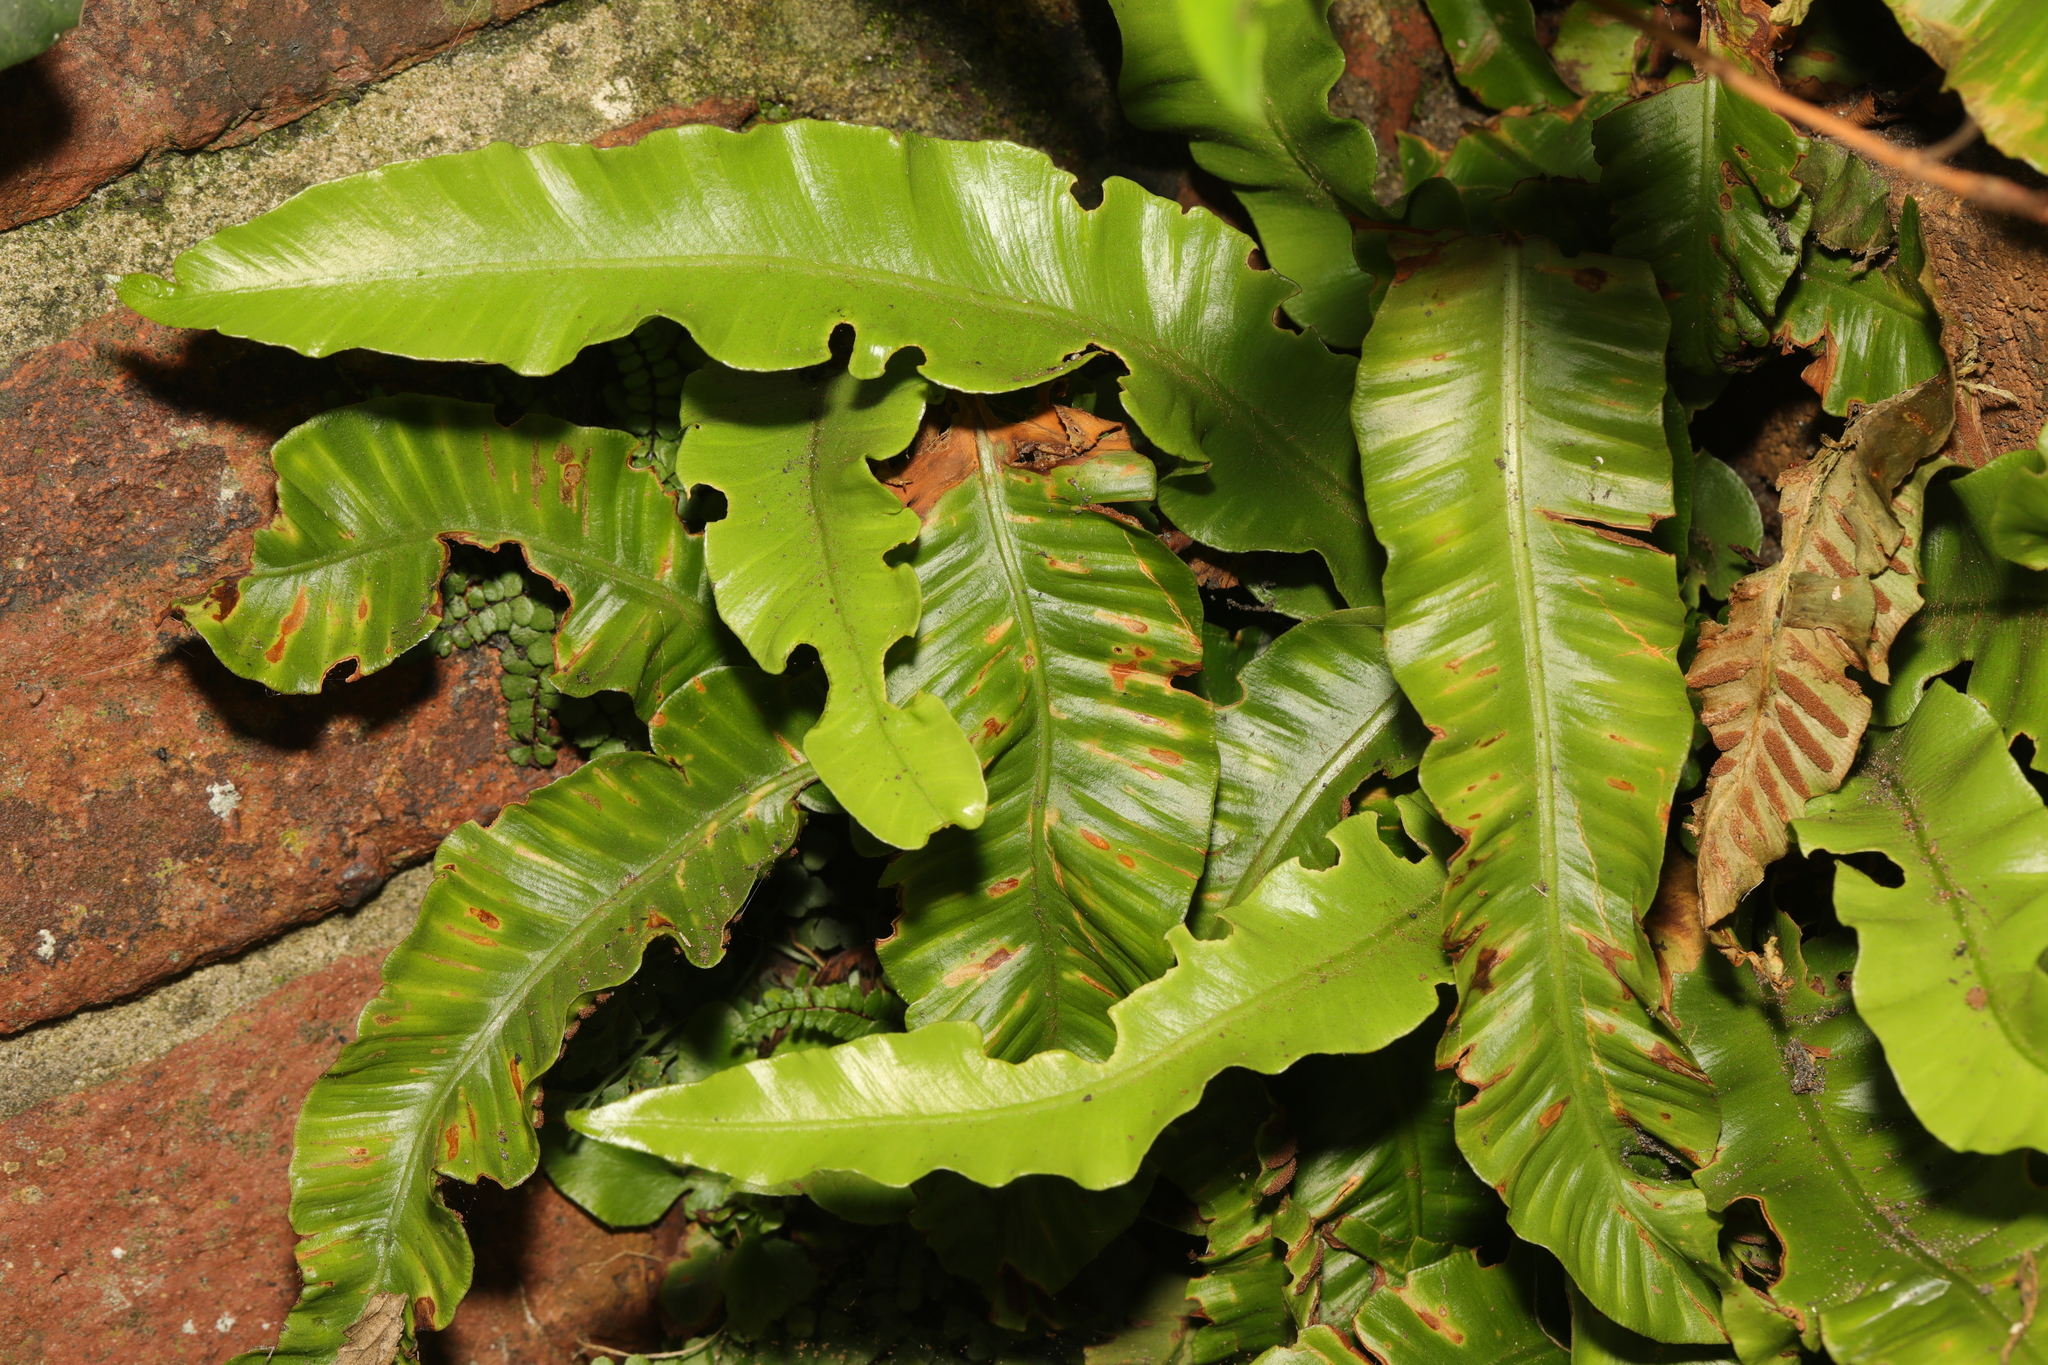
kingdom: Plantae
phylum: Tracheophyta
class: Polypodiopsida
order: Polypodiales
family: Aspleniaceae
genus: Asplenium
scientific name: Asplenium scolopendrium
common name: Hart's-tongue fern
